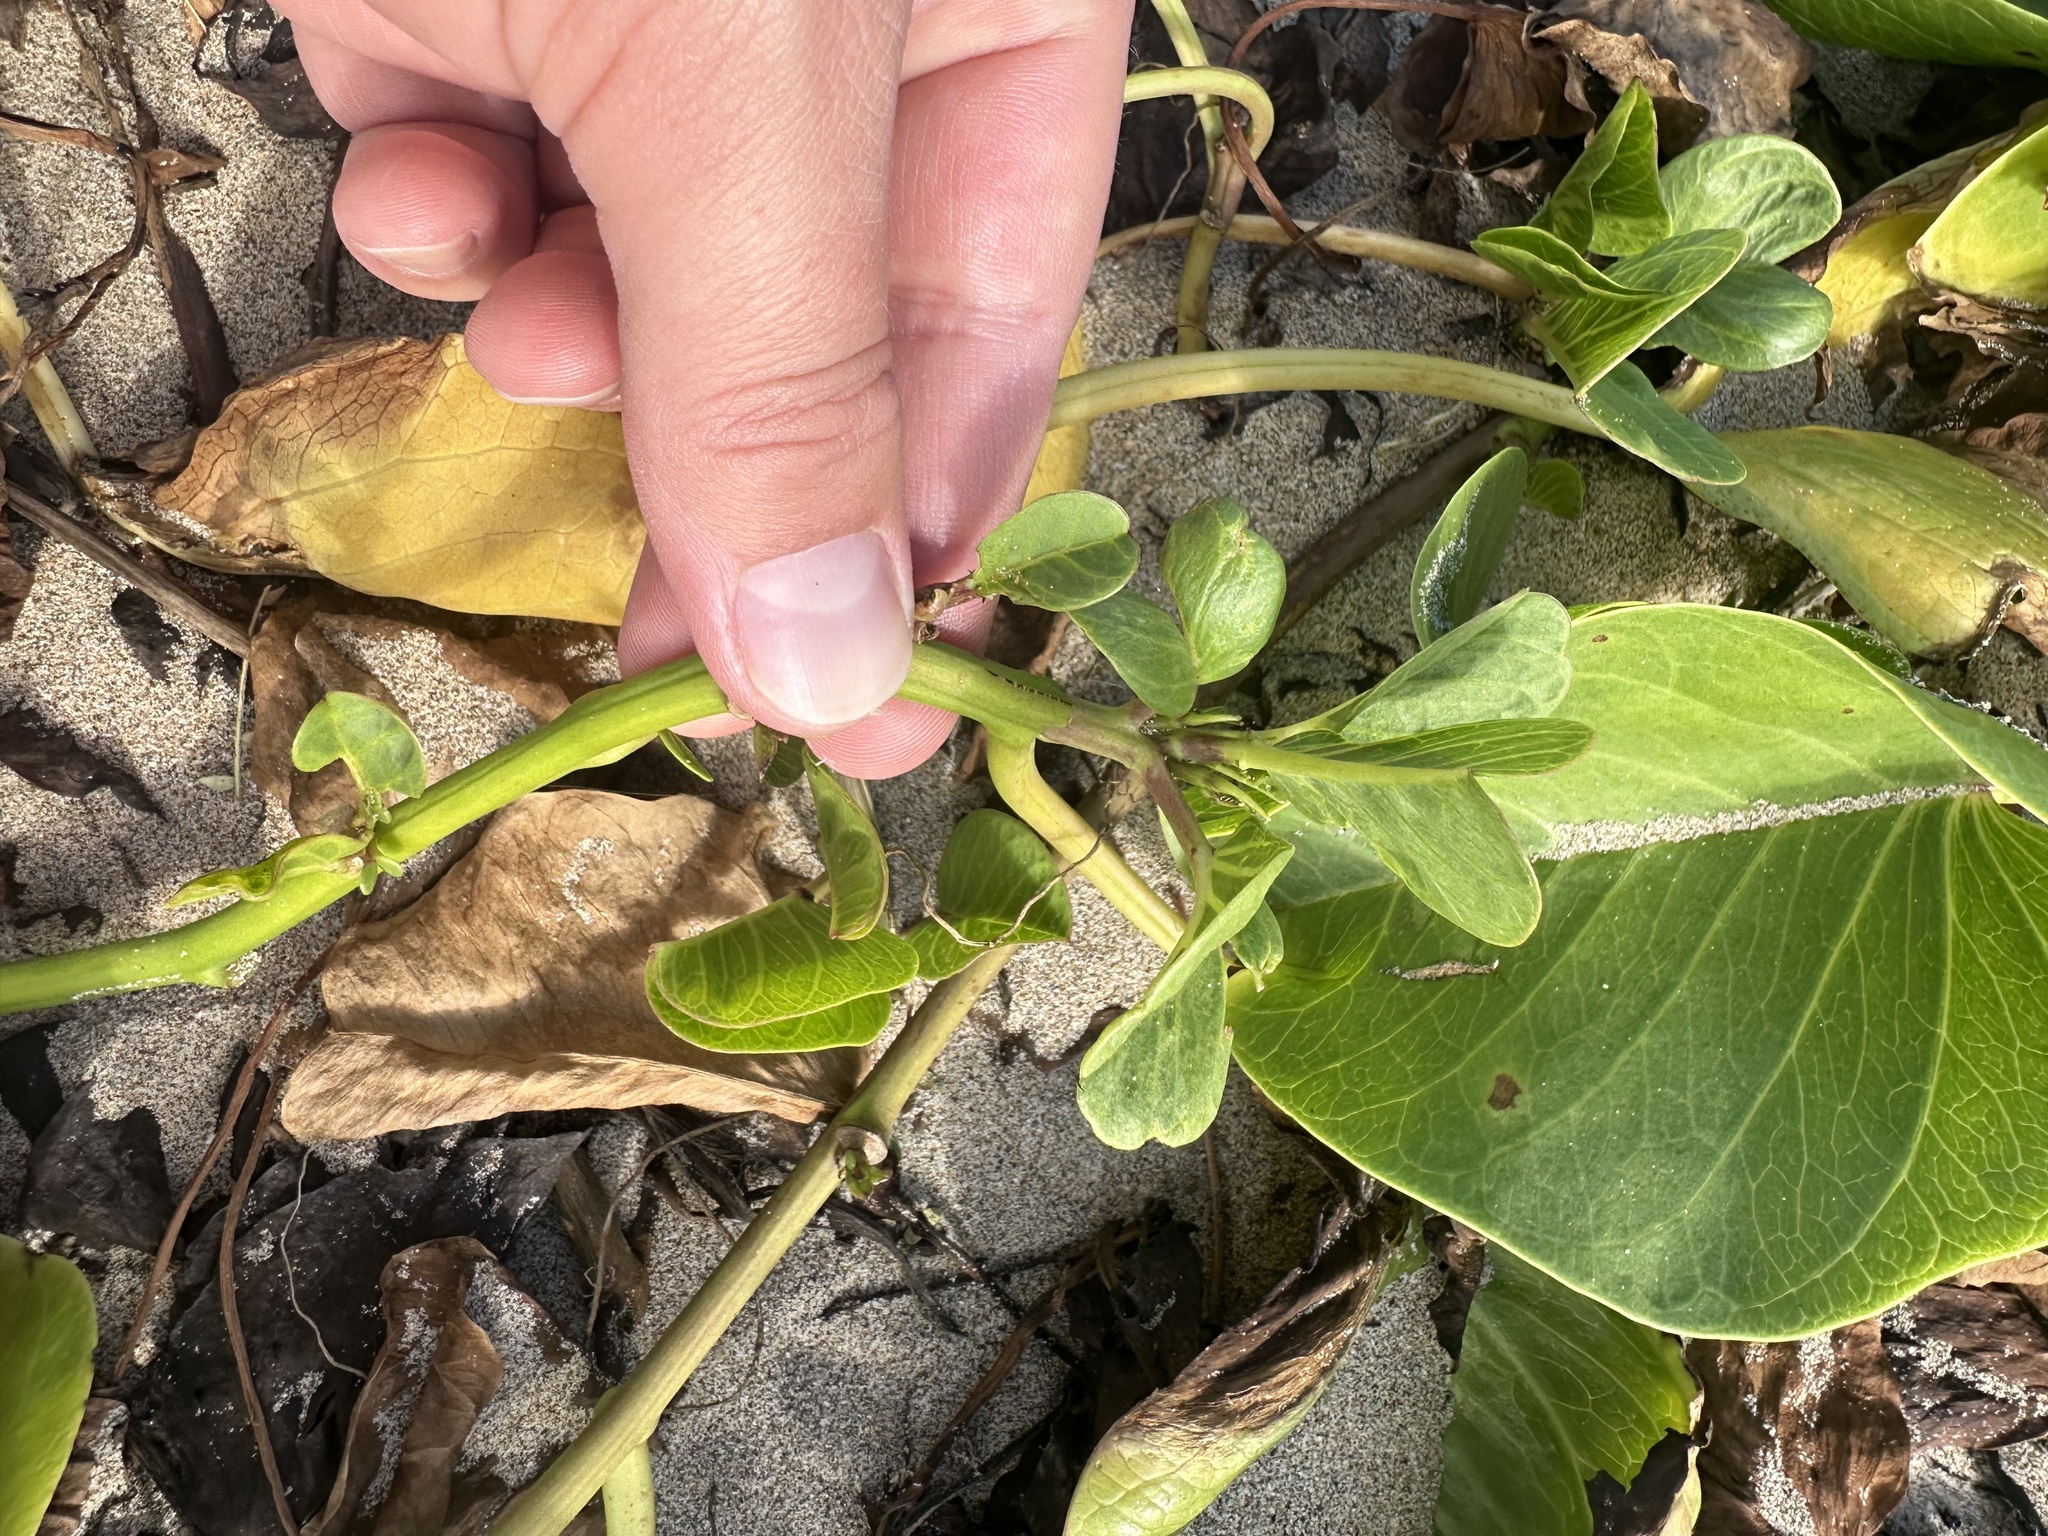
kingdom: Plantae
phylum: Tracheophyta
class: Magnoliopsida
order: Solanales
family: Convolvulaceae
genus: Ipomoea
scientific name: Ipomoea pes-caprae
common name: Beach morning glory
